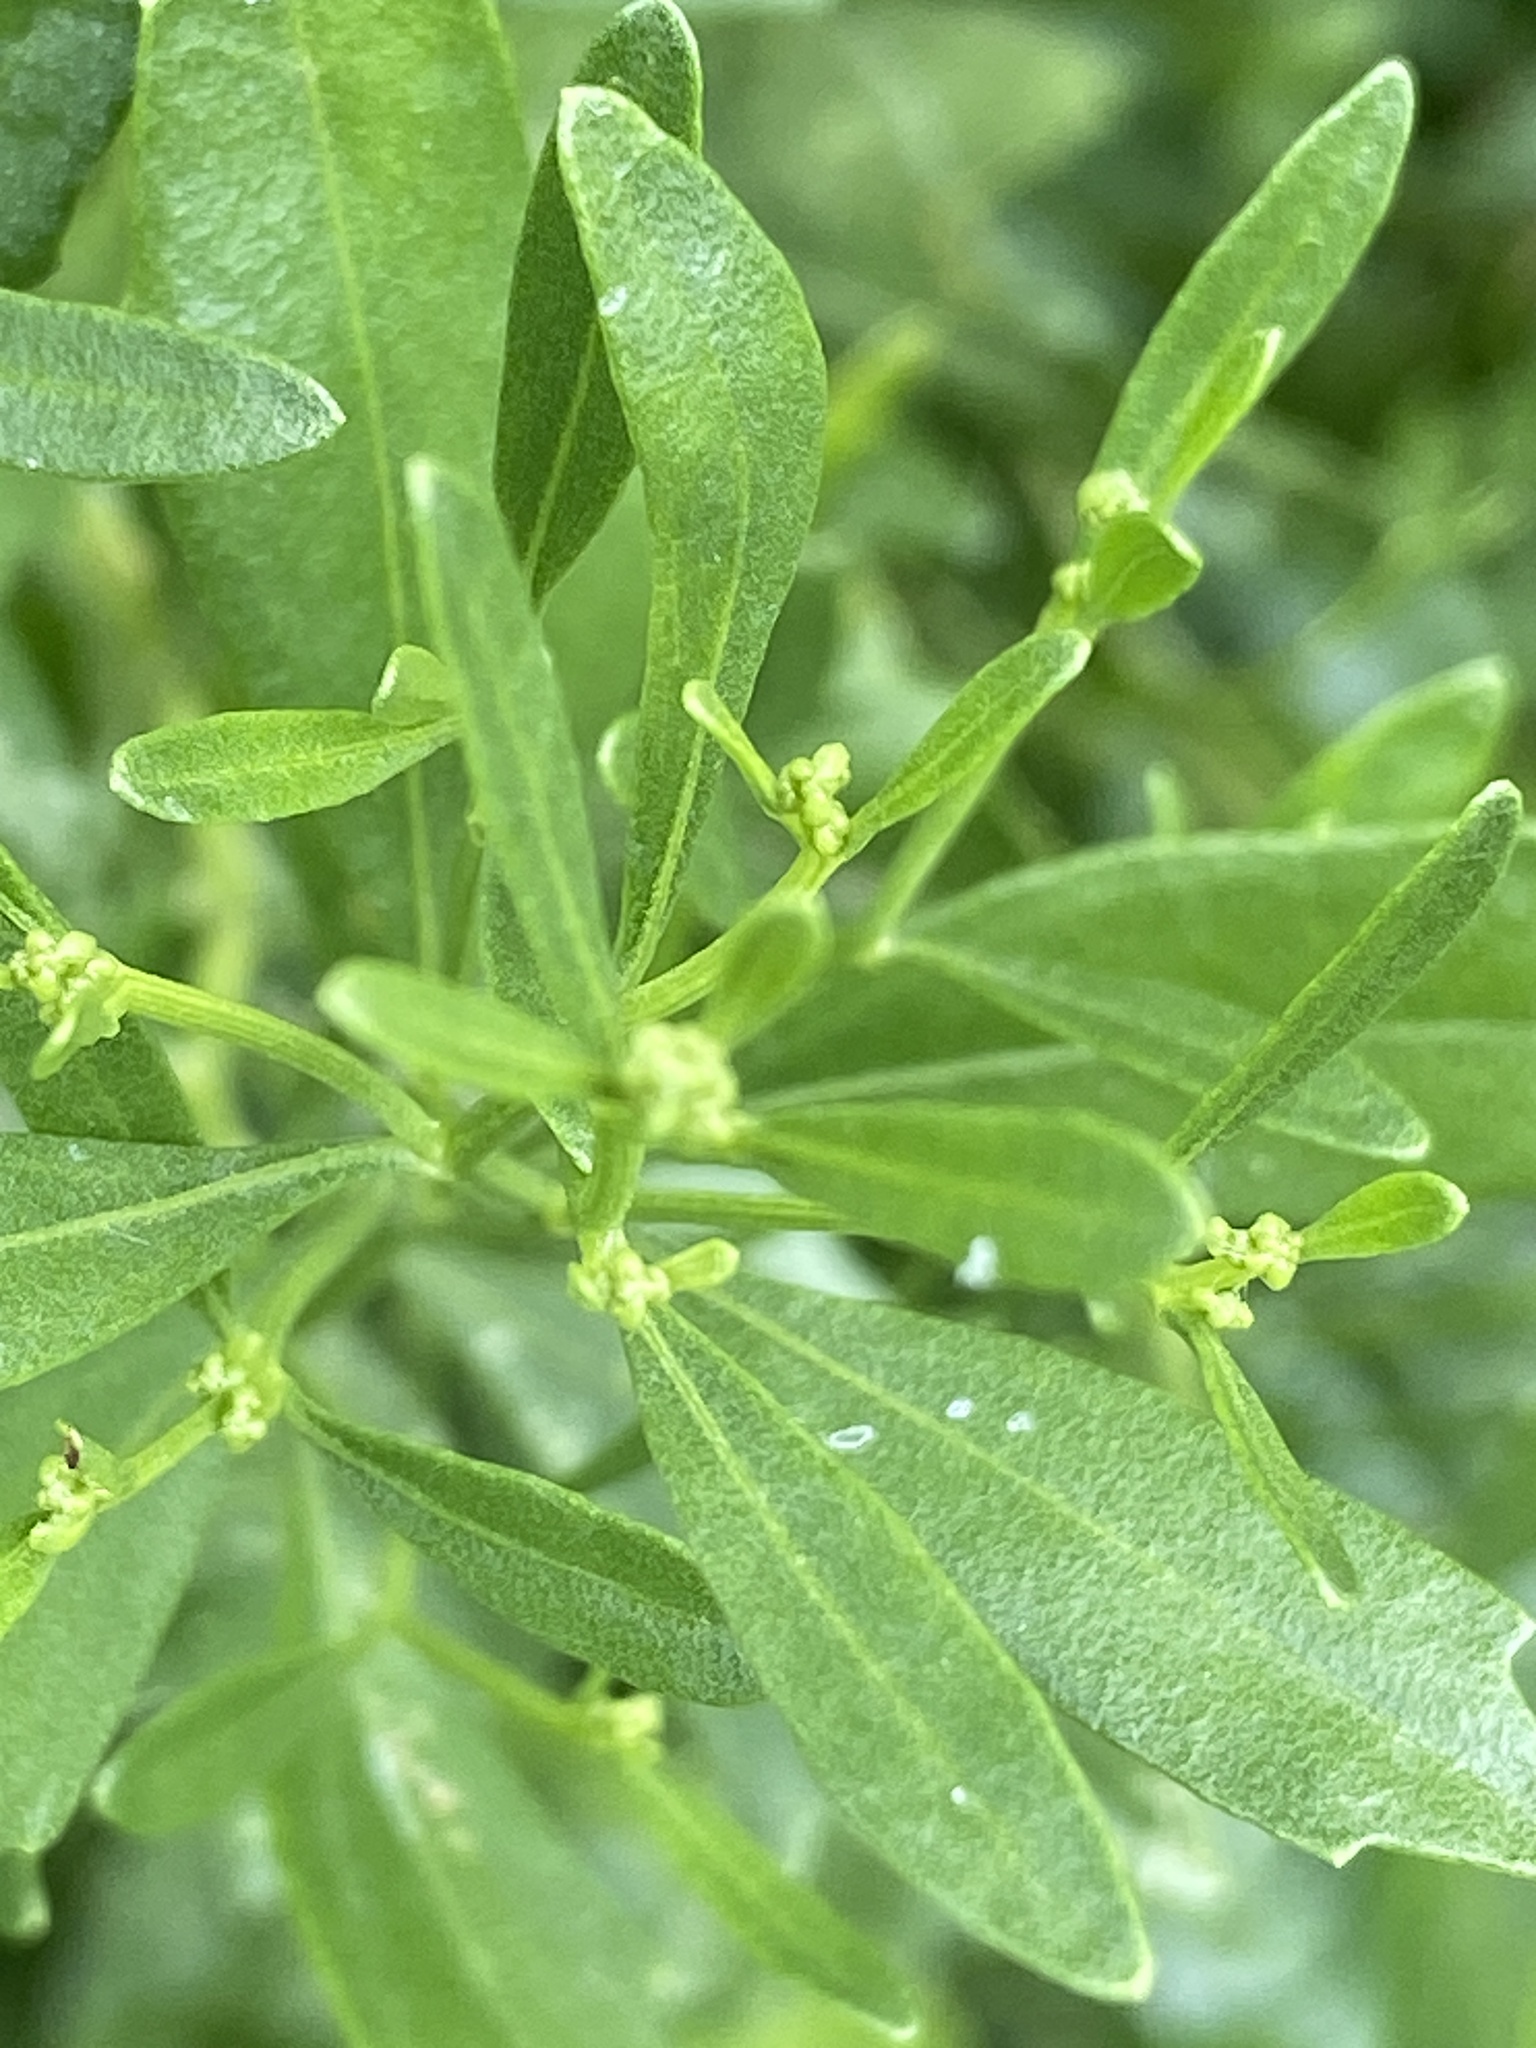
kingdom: Plantae
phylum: Tracheophyta
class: Magnoliopsida
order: Asterales
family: Asteraceae
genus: Baccharis
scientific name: Baccharis halimifolia
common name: Eastern baccharis
